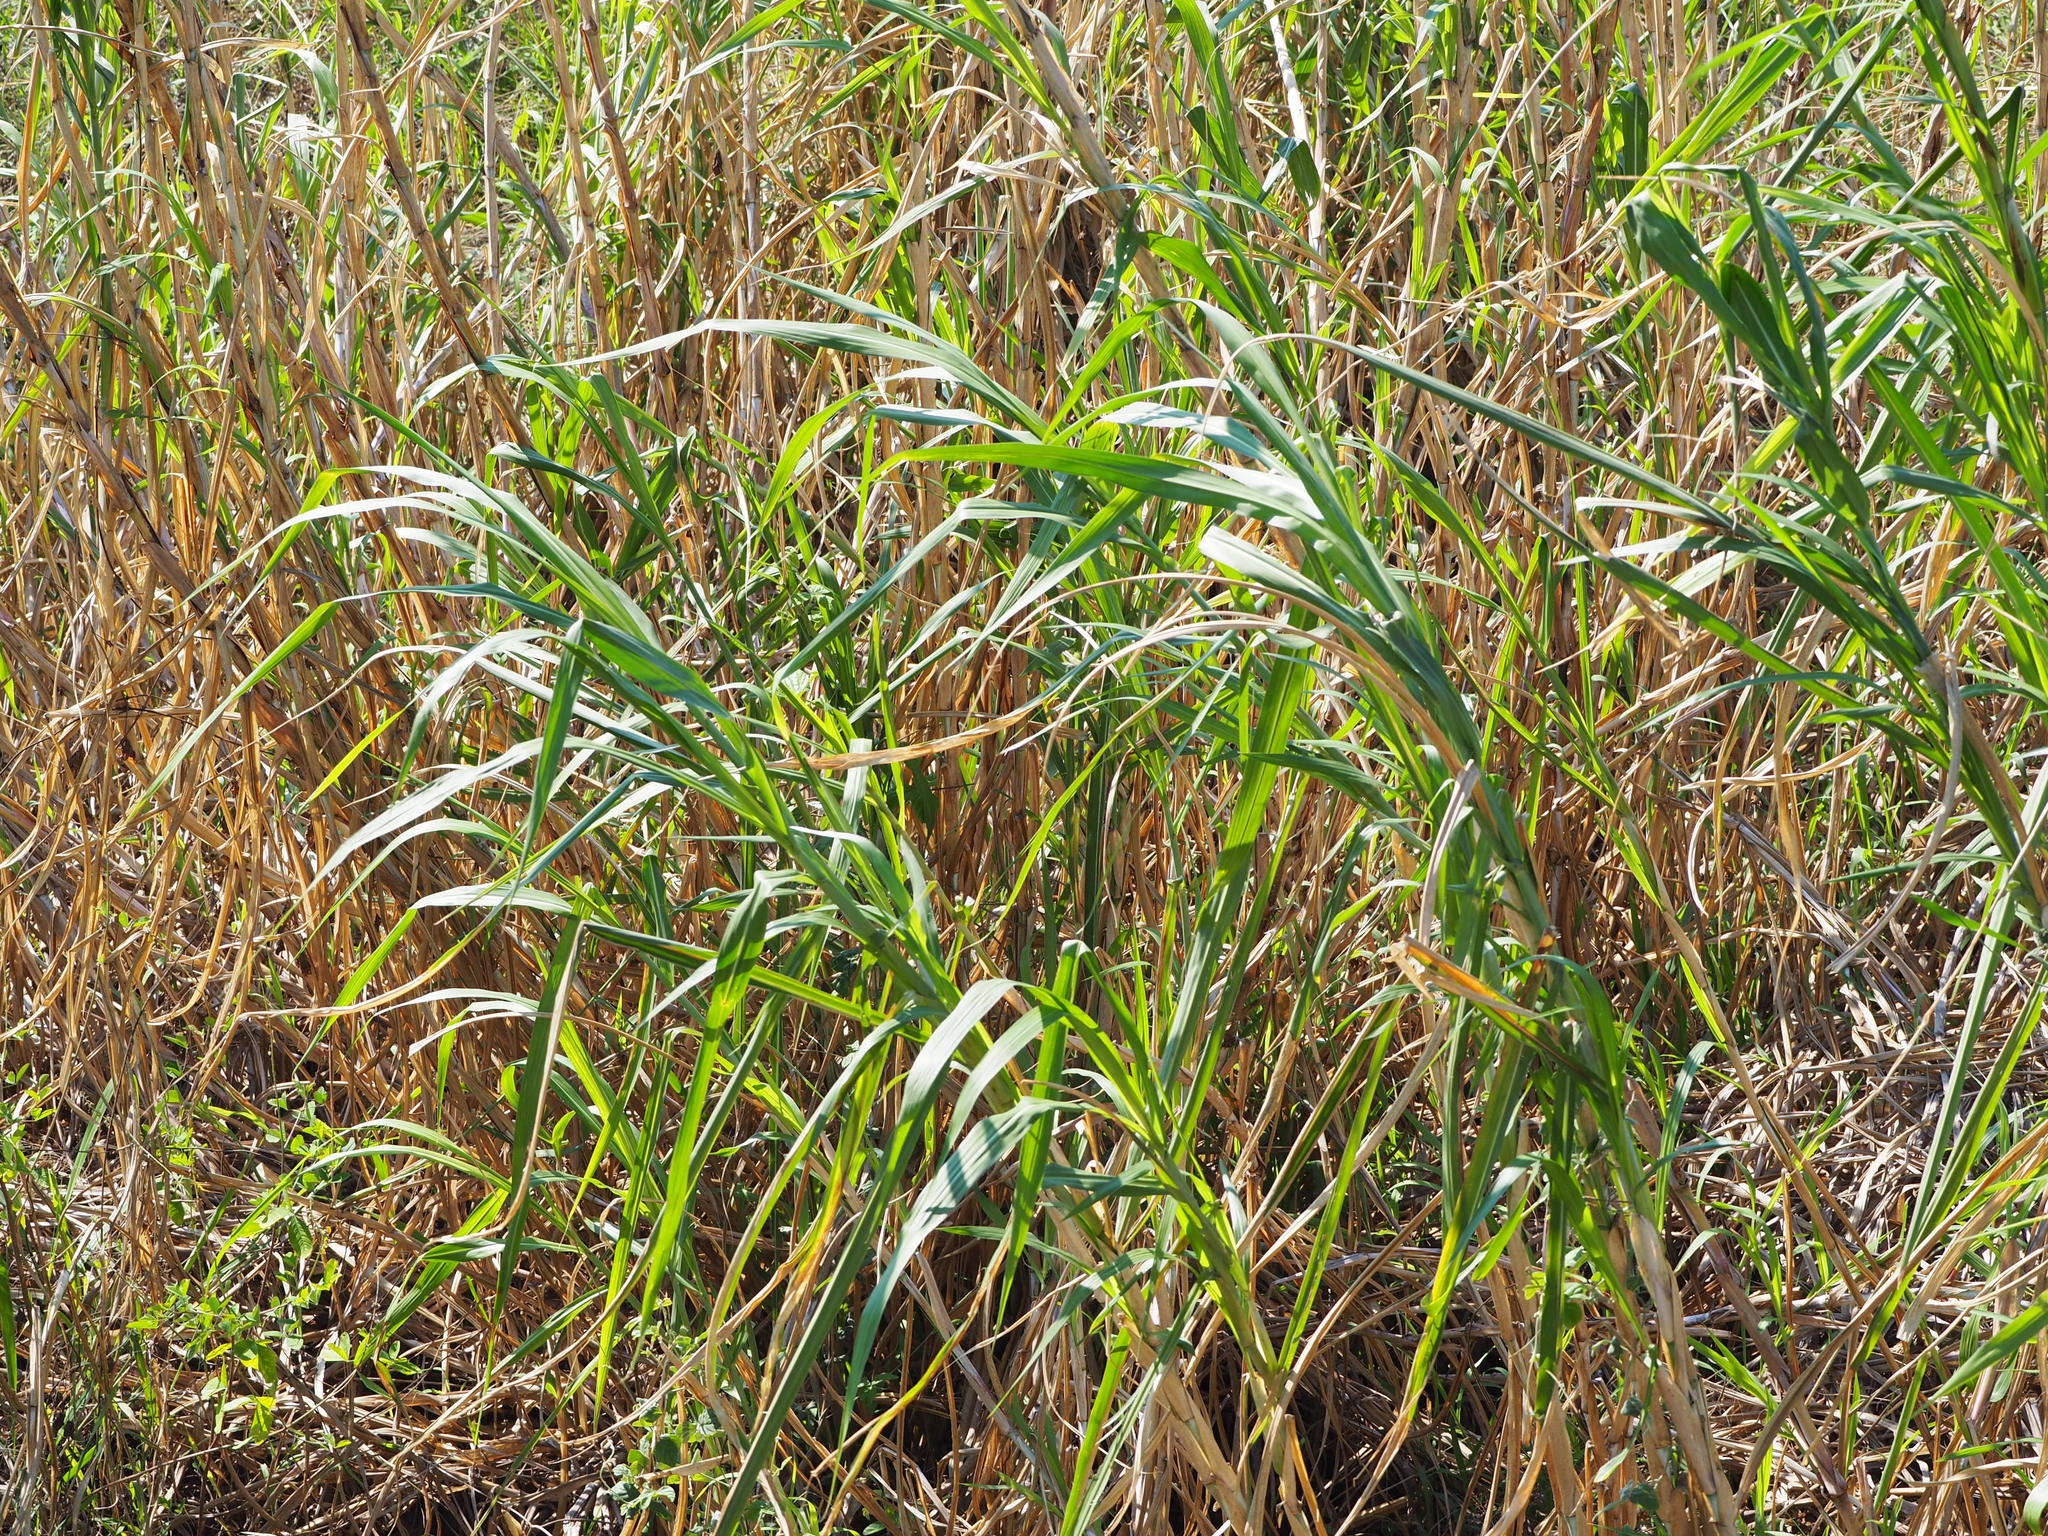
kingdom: Plantae
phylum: Tracheophyta
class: Liliopsida
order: Poales
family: Poaceae
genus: Cenchrus
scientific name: Cenchrus purpureus
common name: Elephant grass
